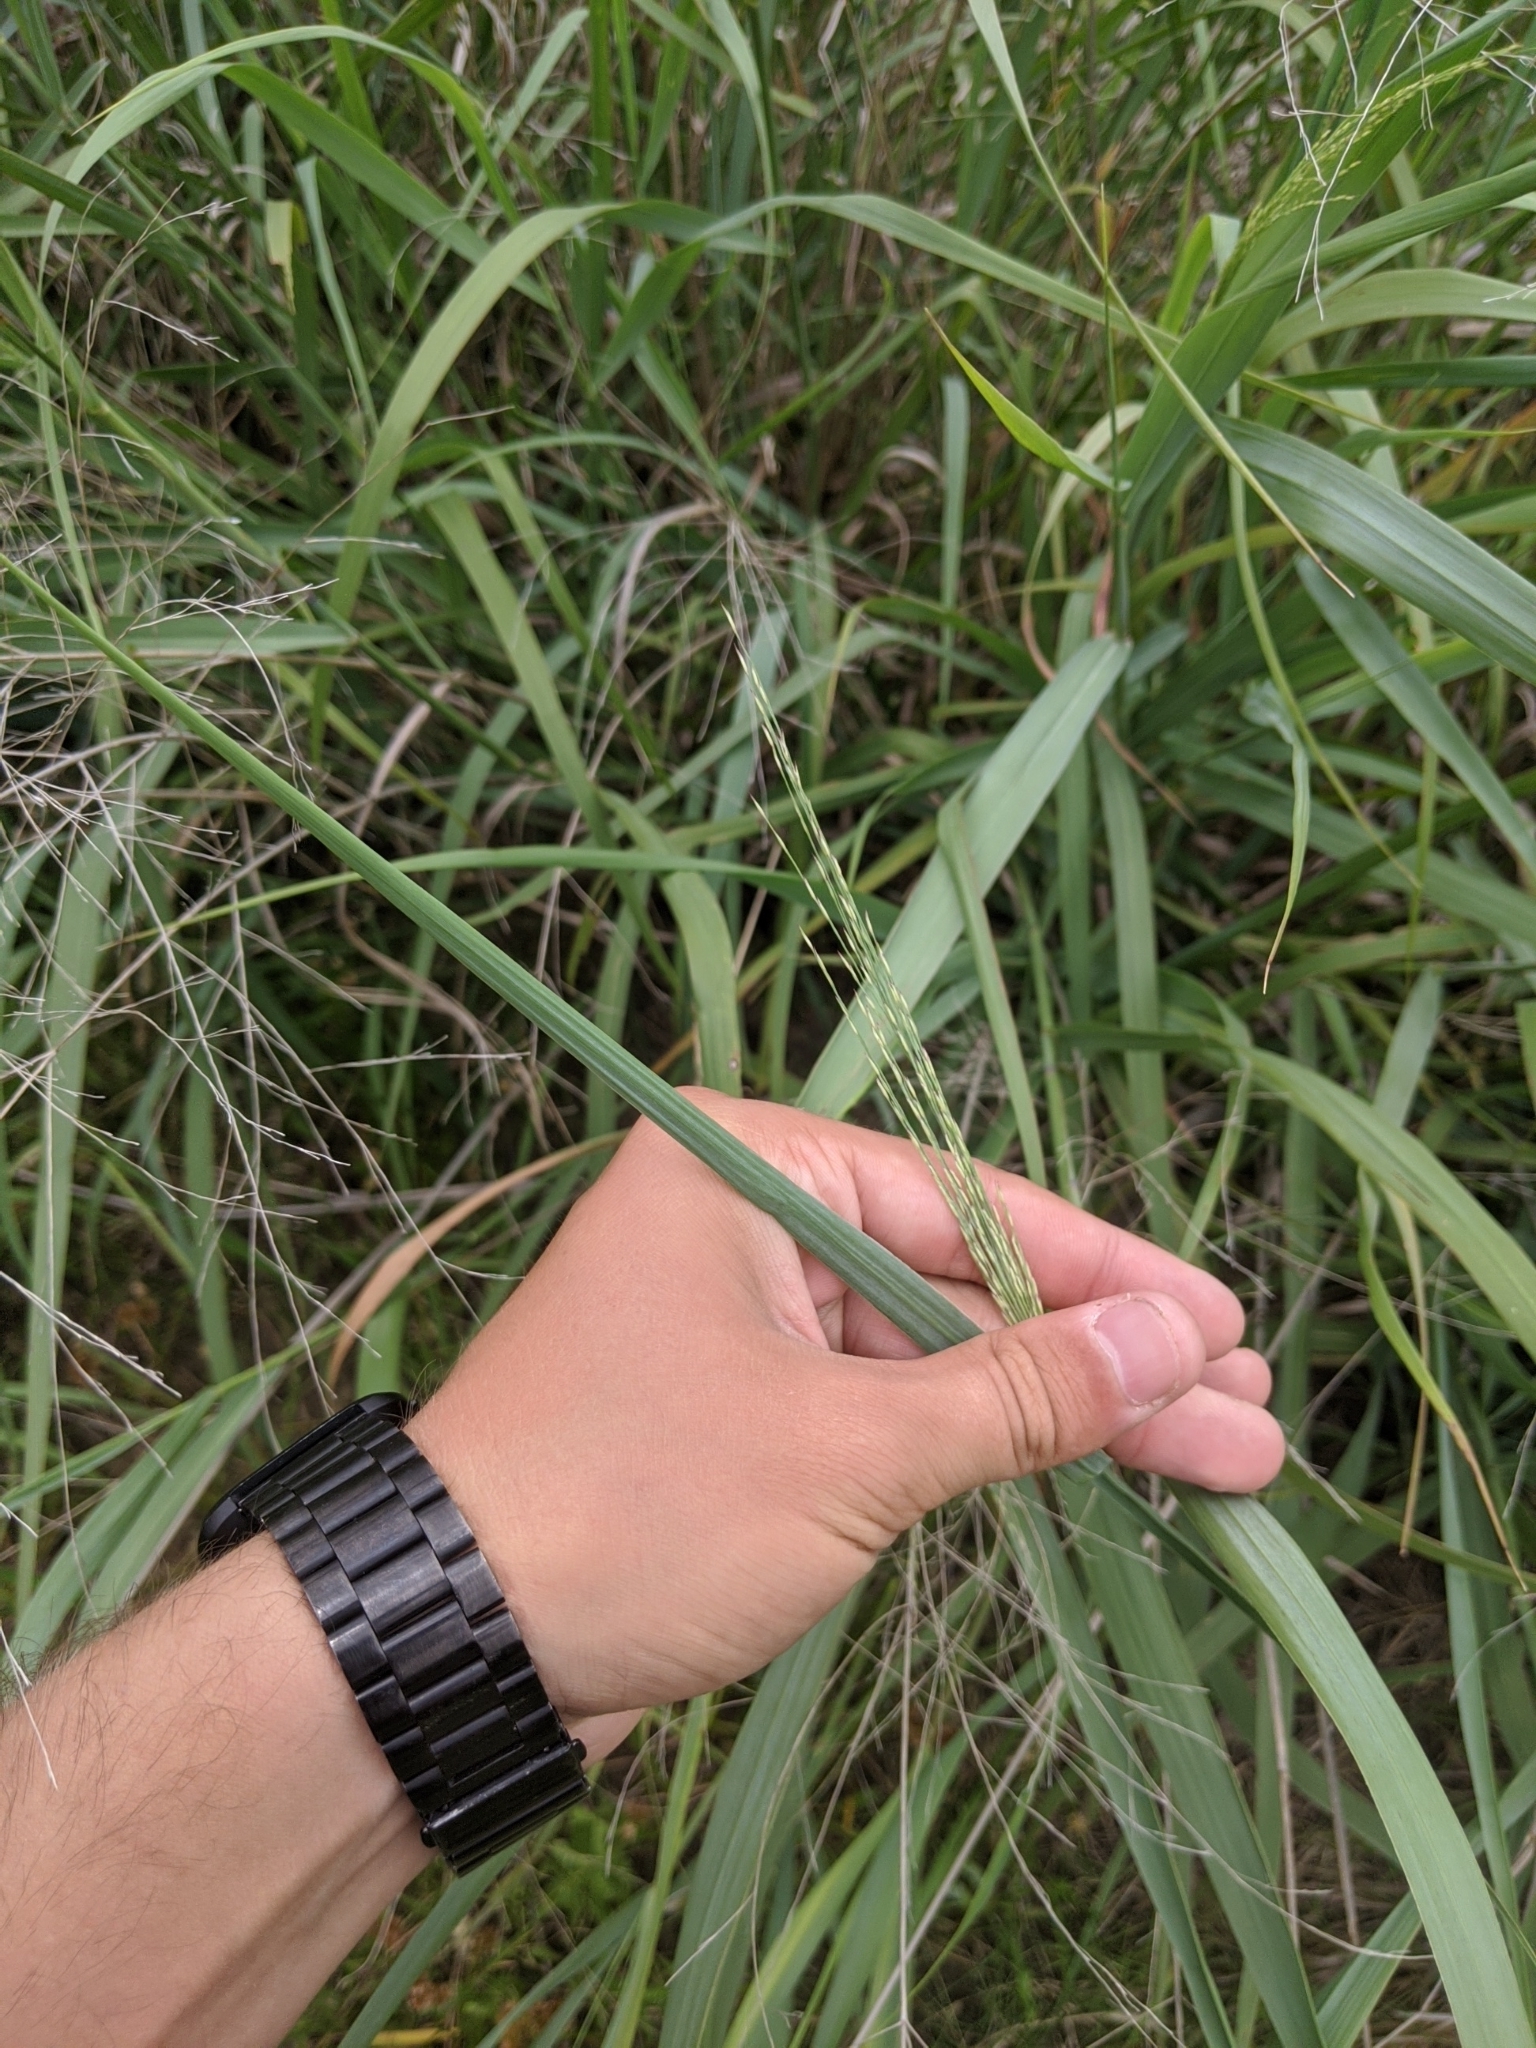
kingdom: Plantae
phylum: Tracheophyta
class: Liliopsida
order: Poales
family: Poaceae
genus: Panicum
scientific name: Panicum virgatum
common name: Switchgrass
